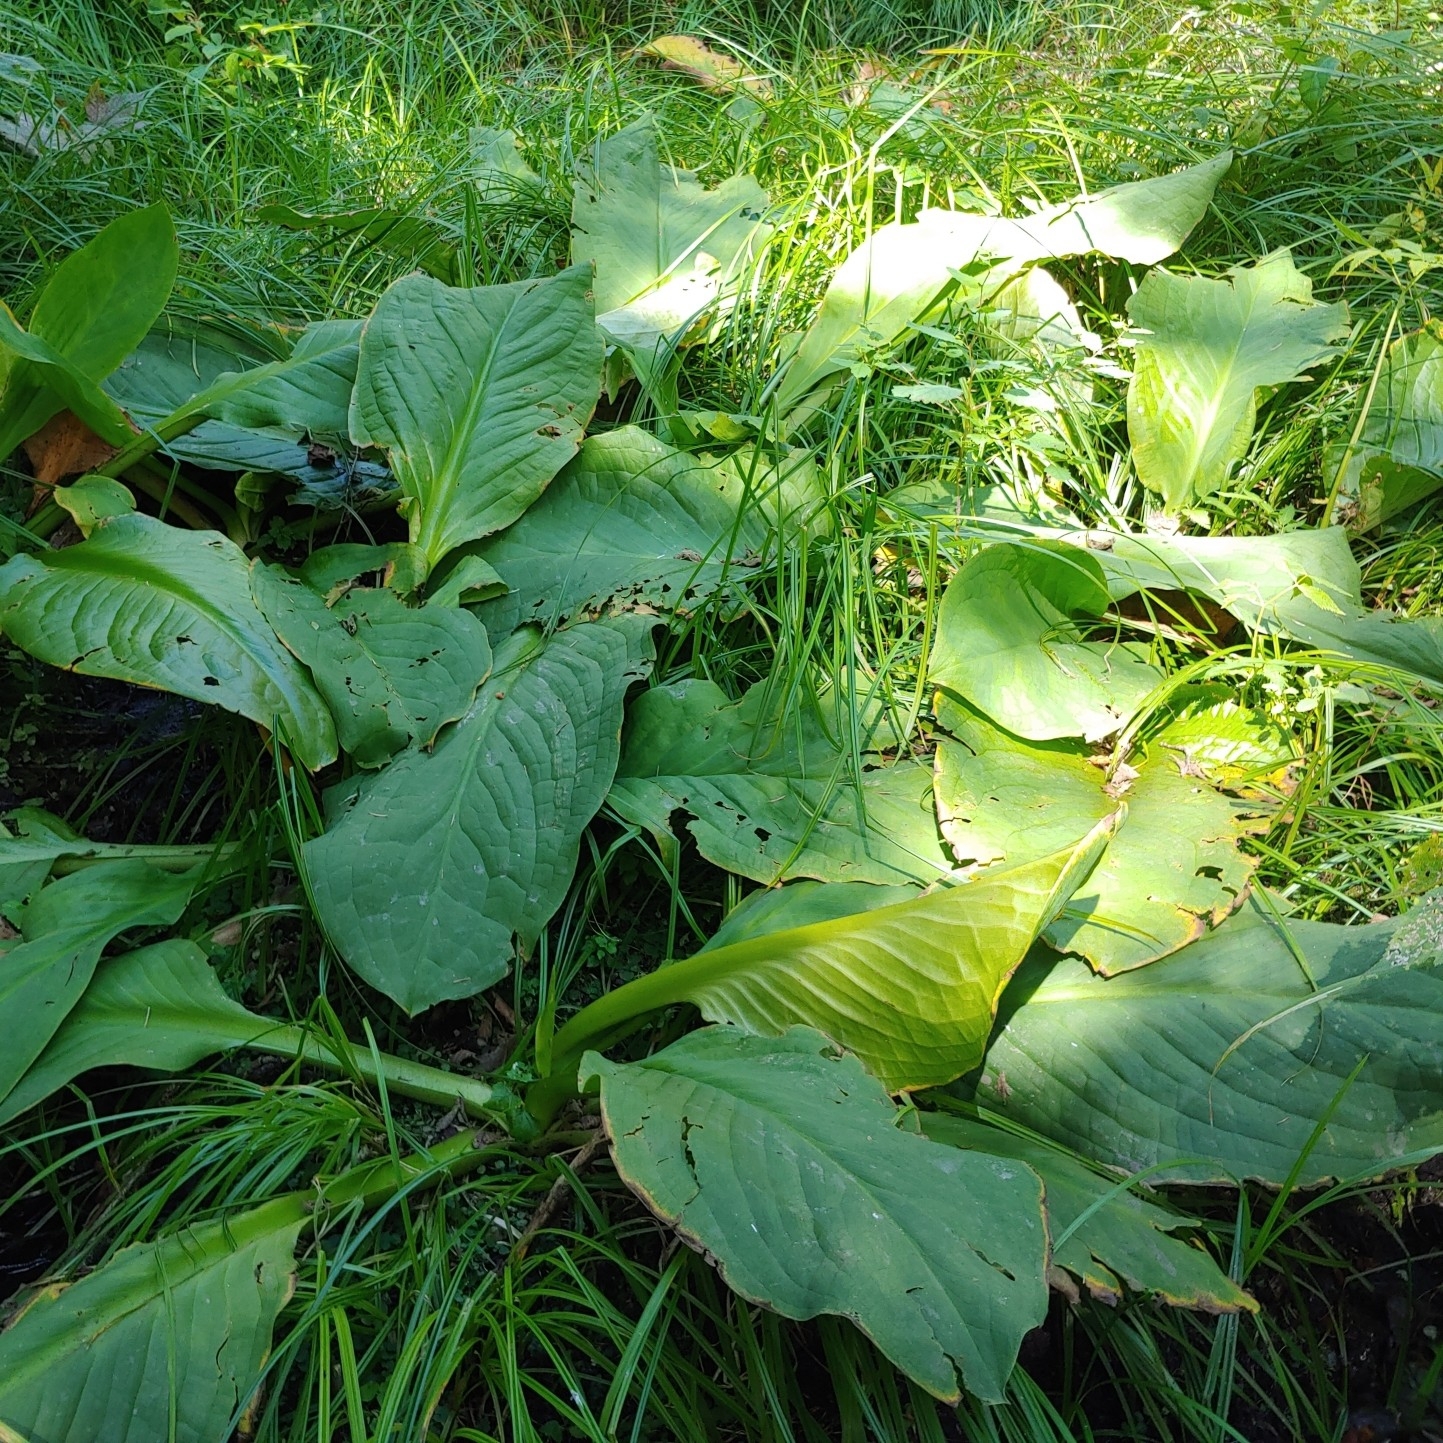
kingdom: Plantae
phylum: Tracheophyta
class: Liliopsida
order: Alismatales
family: Araceae
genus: Lysichiton
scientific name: Lysichiton camtschatcensis
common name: Asian skunk-cabbage
